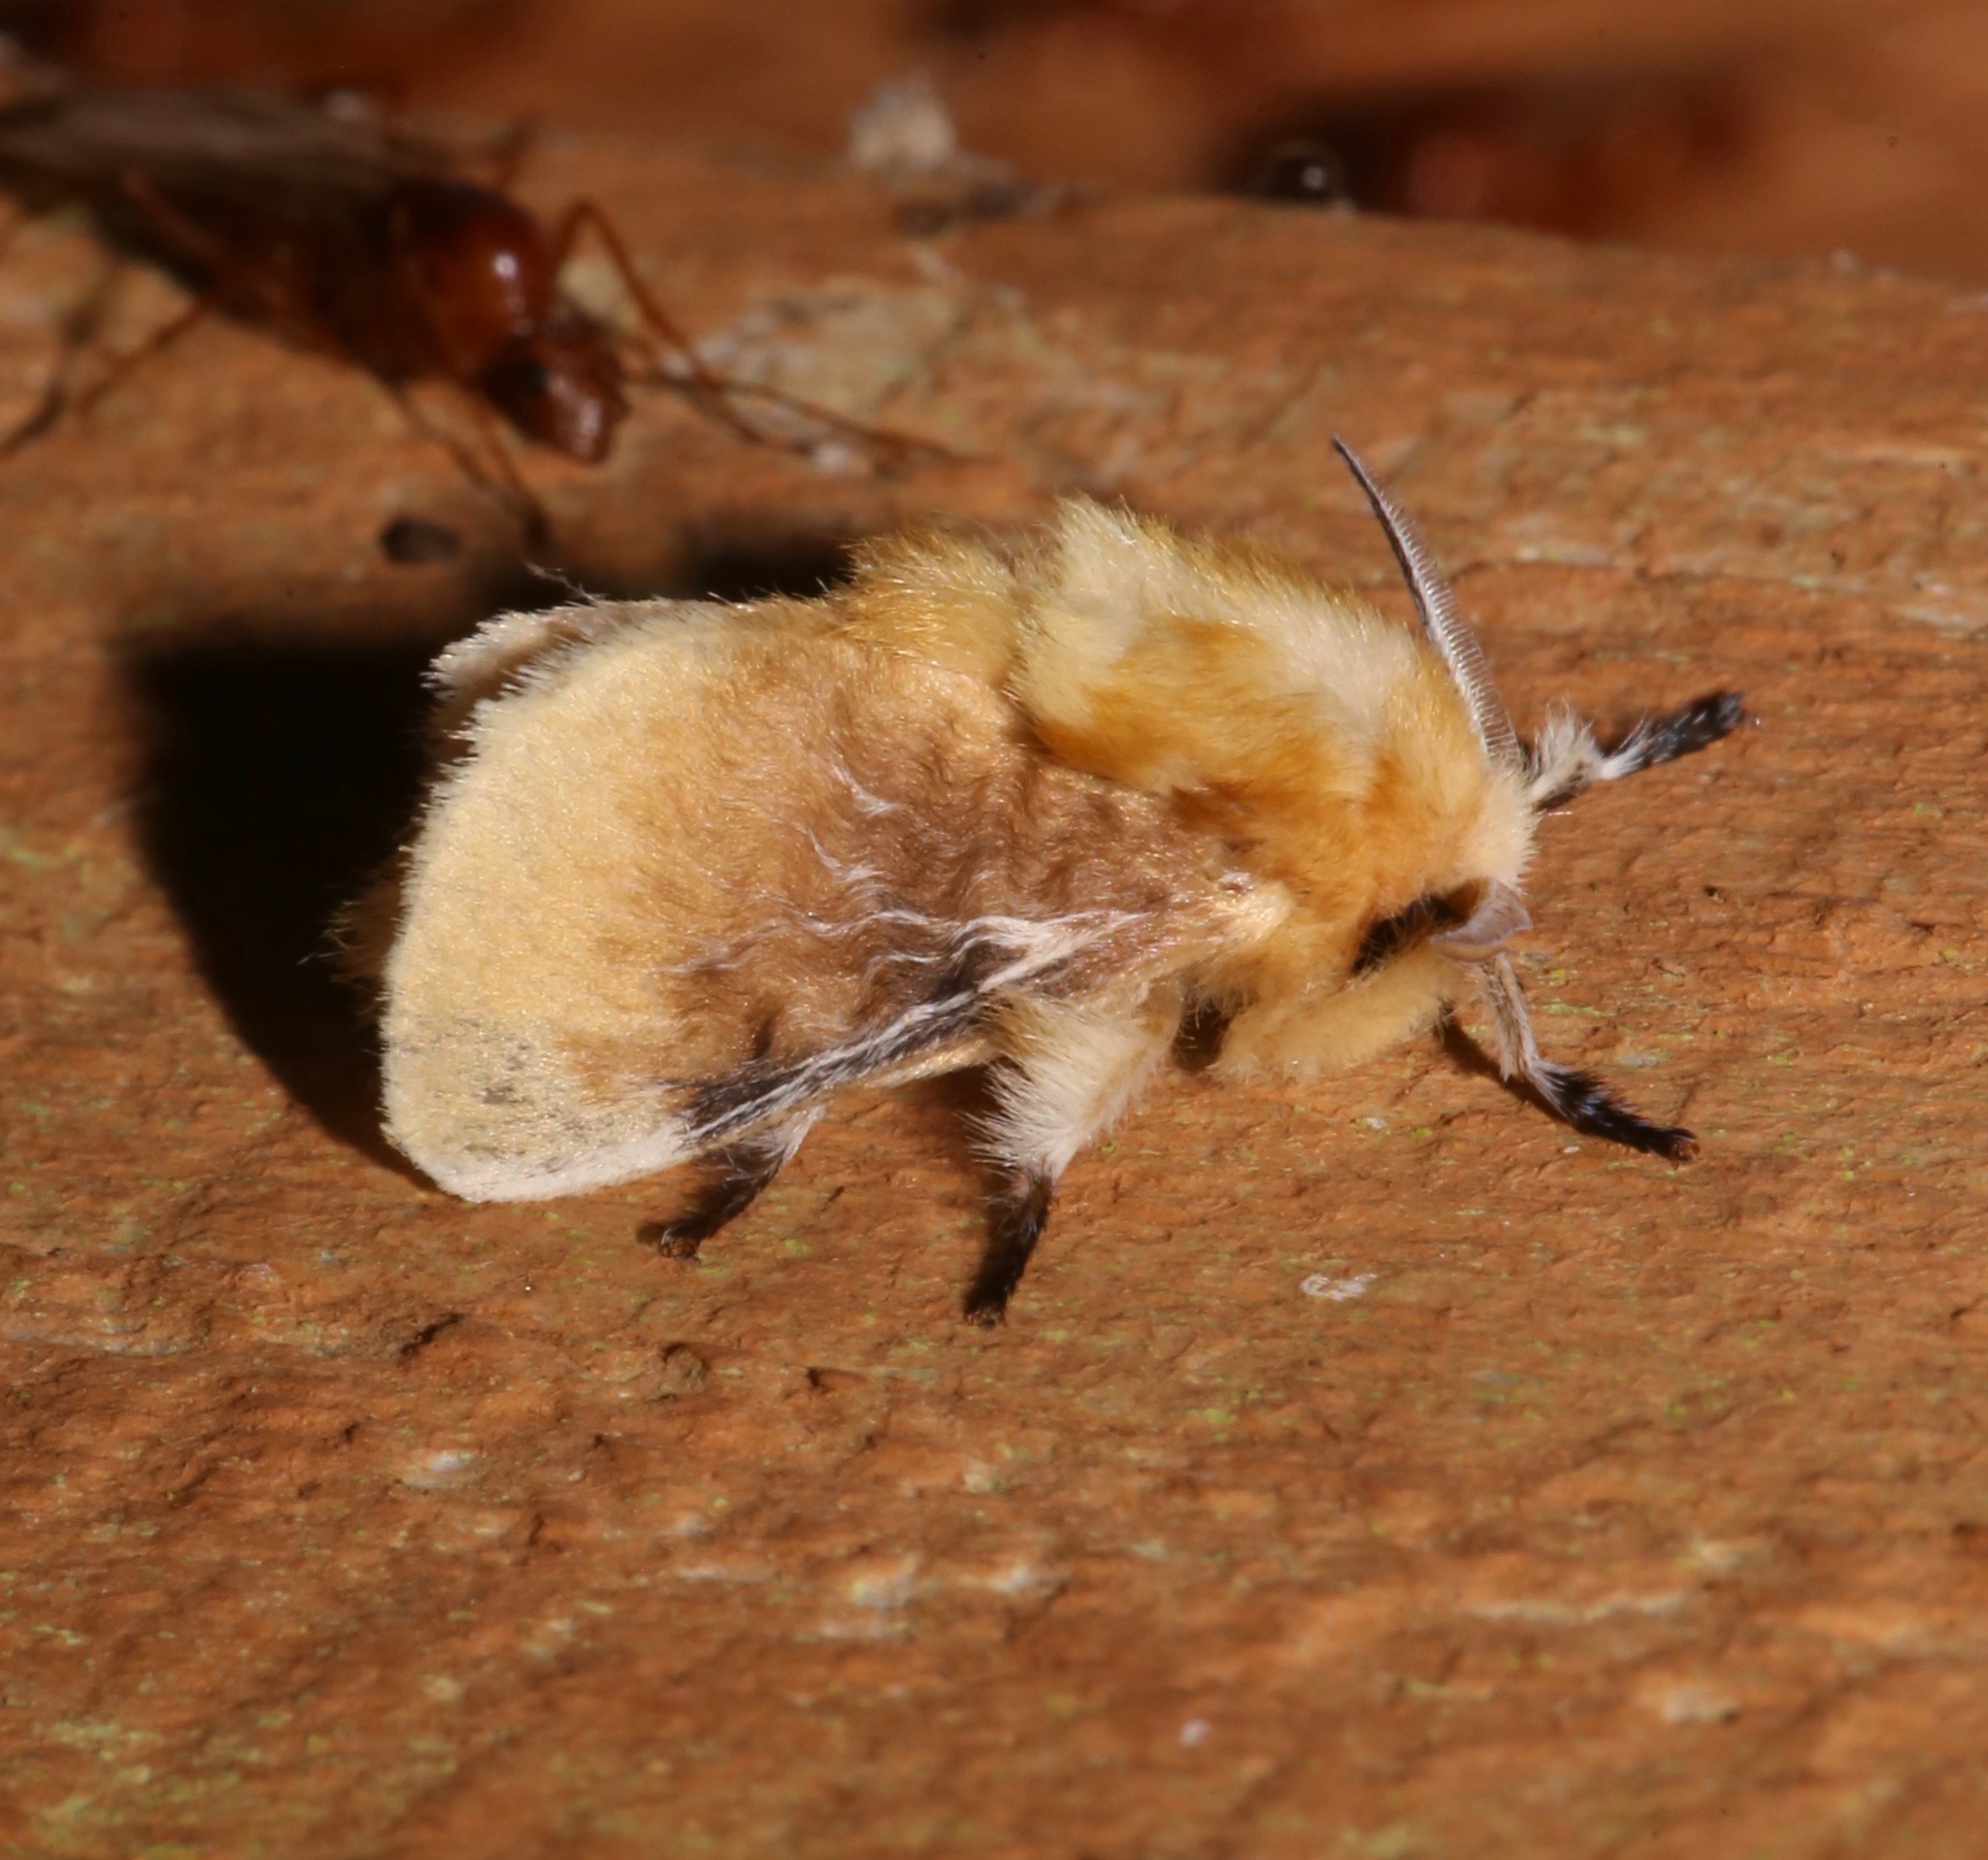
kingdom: Animalia
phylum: Arthropoda
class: Insecta
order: Lepidoptera
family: Megalopygidae
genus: Megalopyge
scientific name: Megalopyge opercularis
